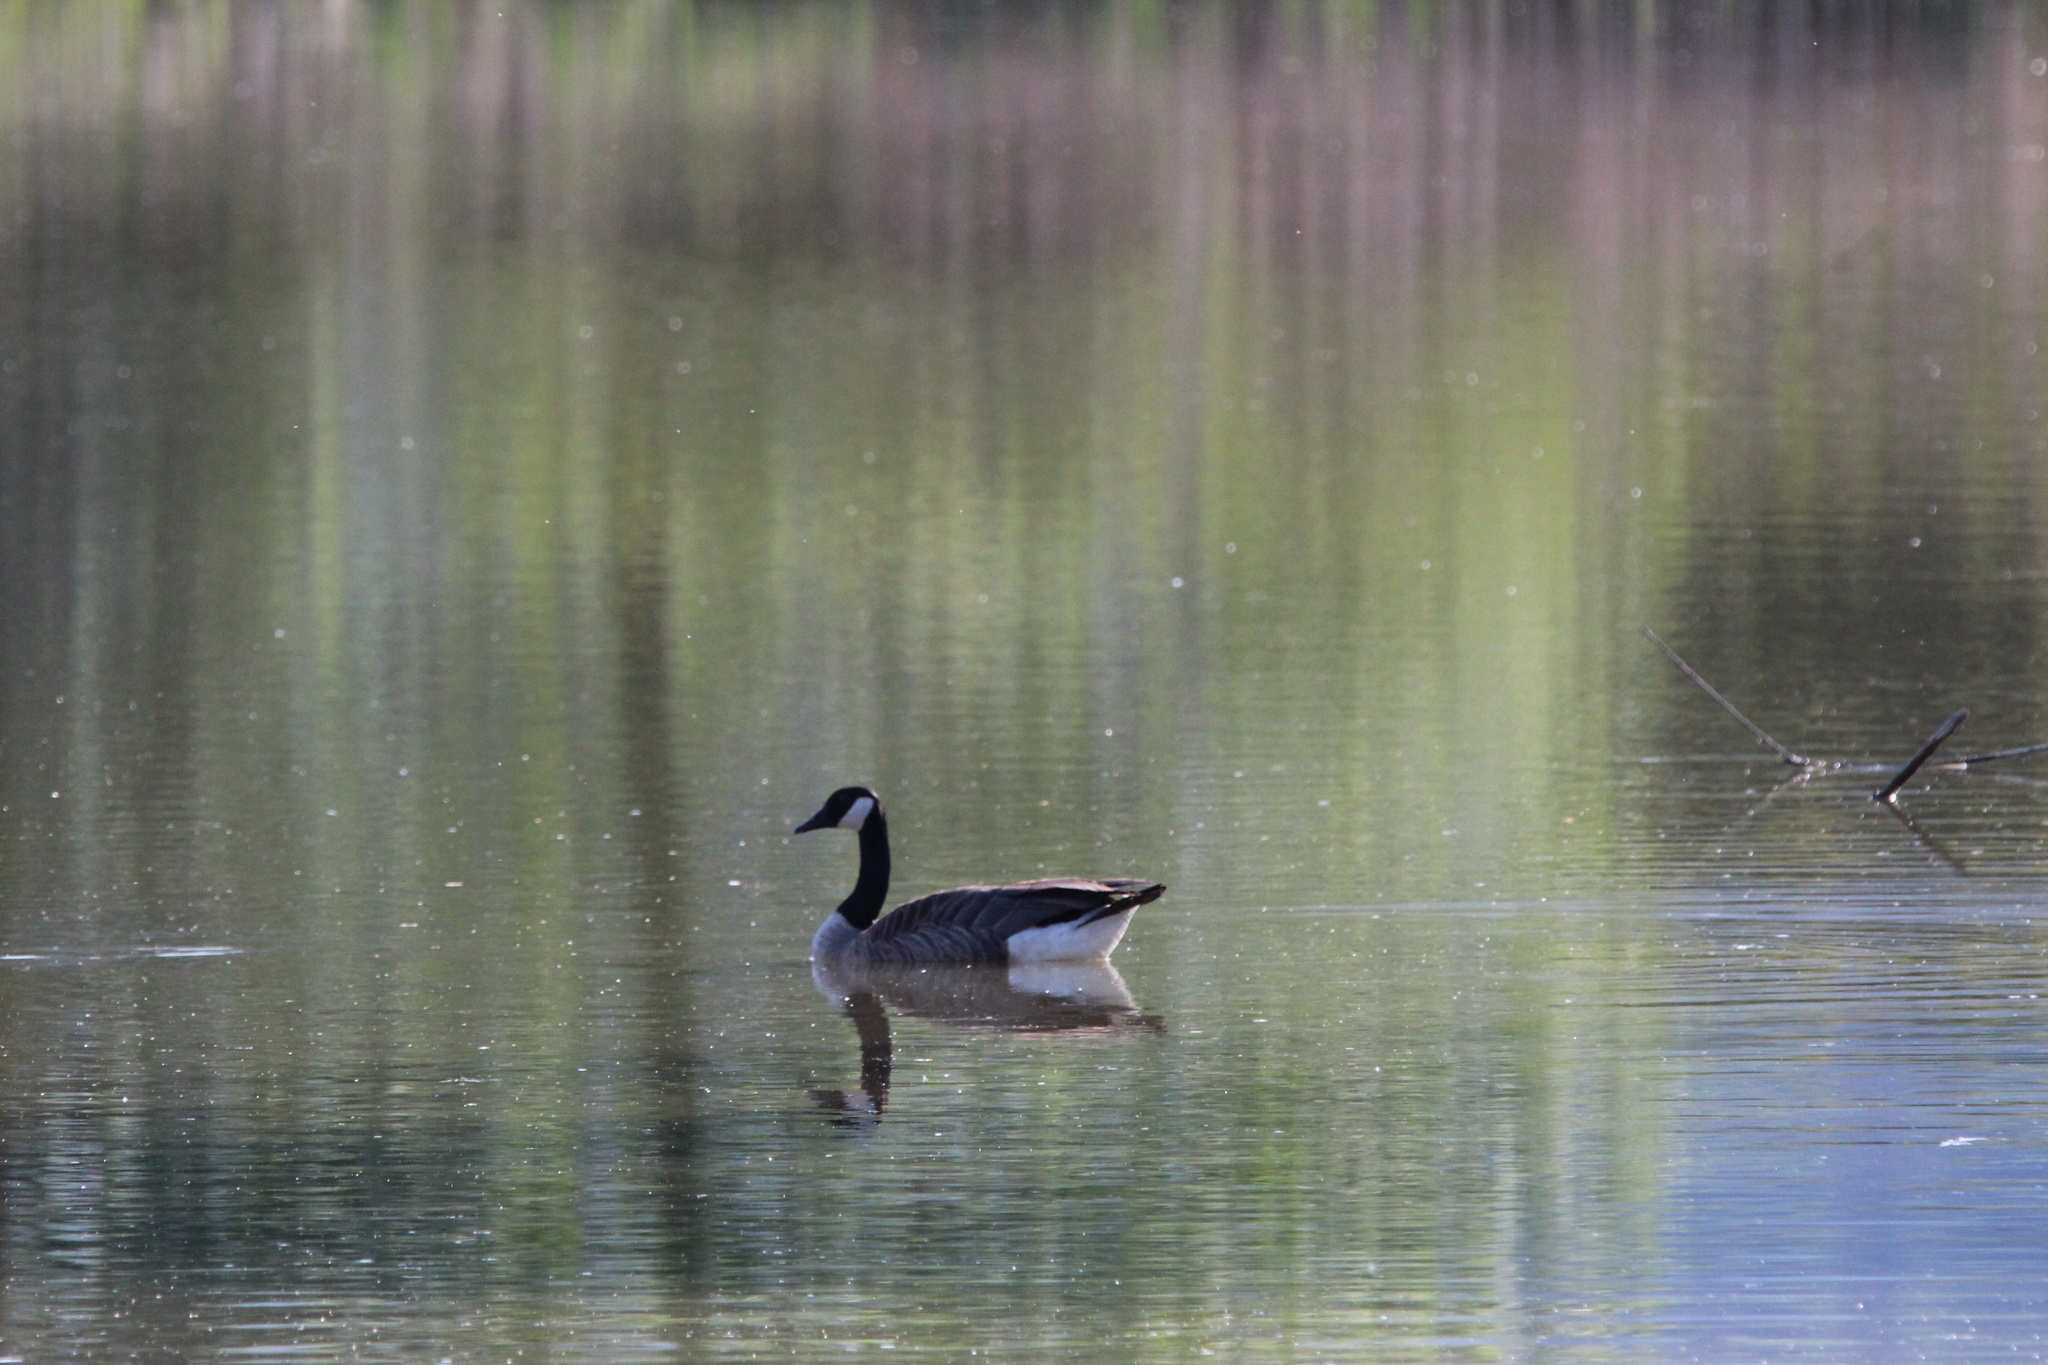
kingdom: Animalia
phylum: Chordata
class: Aves
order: Anseriformes
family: Anatidae
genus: Branta
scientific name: Branta canadensis
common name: Canada goose
